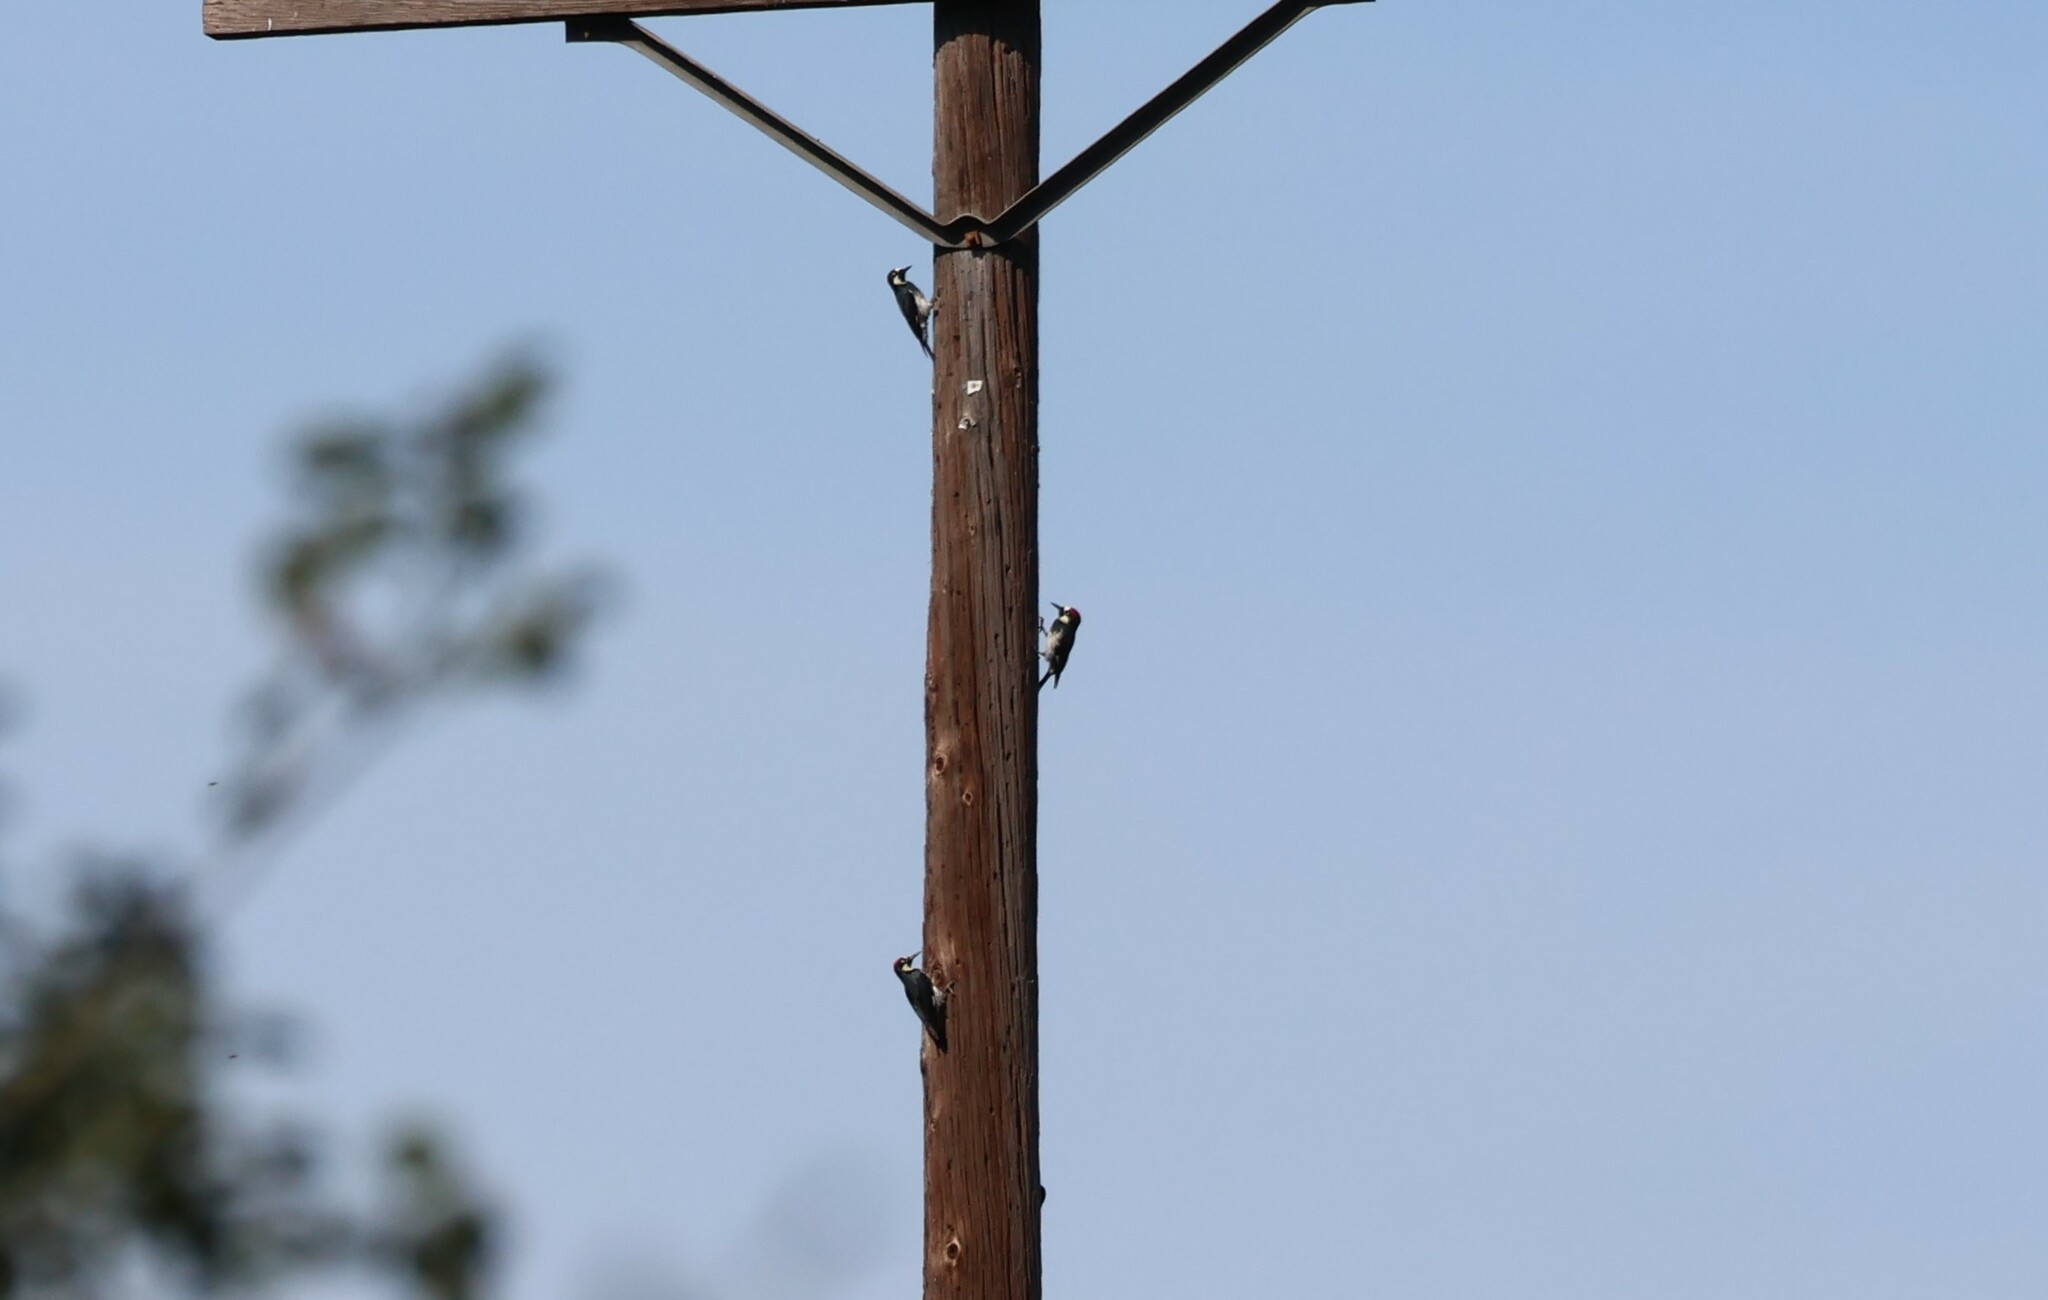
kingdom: Animalia
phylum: Chordata
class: Aves
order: Piciformes
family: Picidae
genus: Melanerpes
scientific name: Melanerpes formicivorus
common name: Acorn woodpecker
